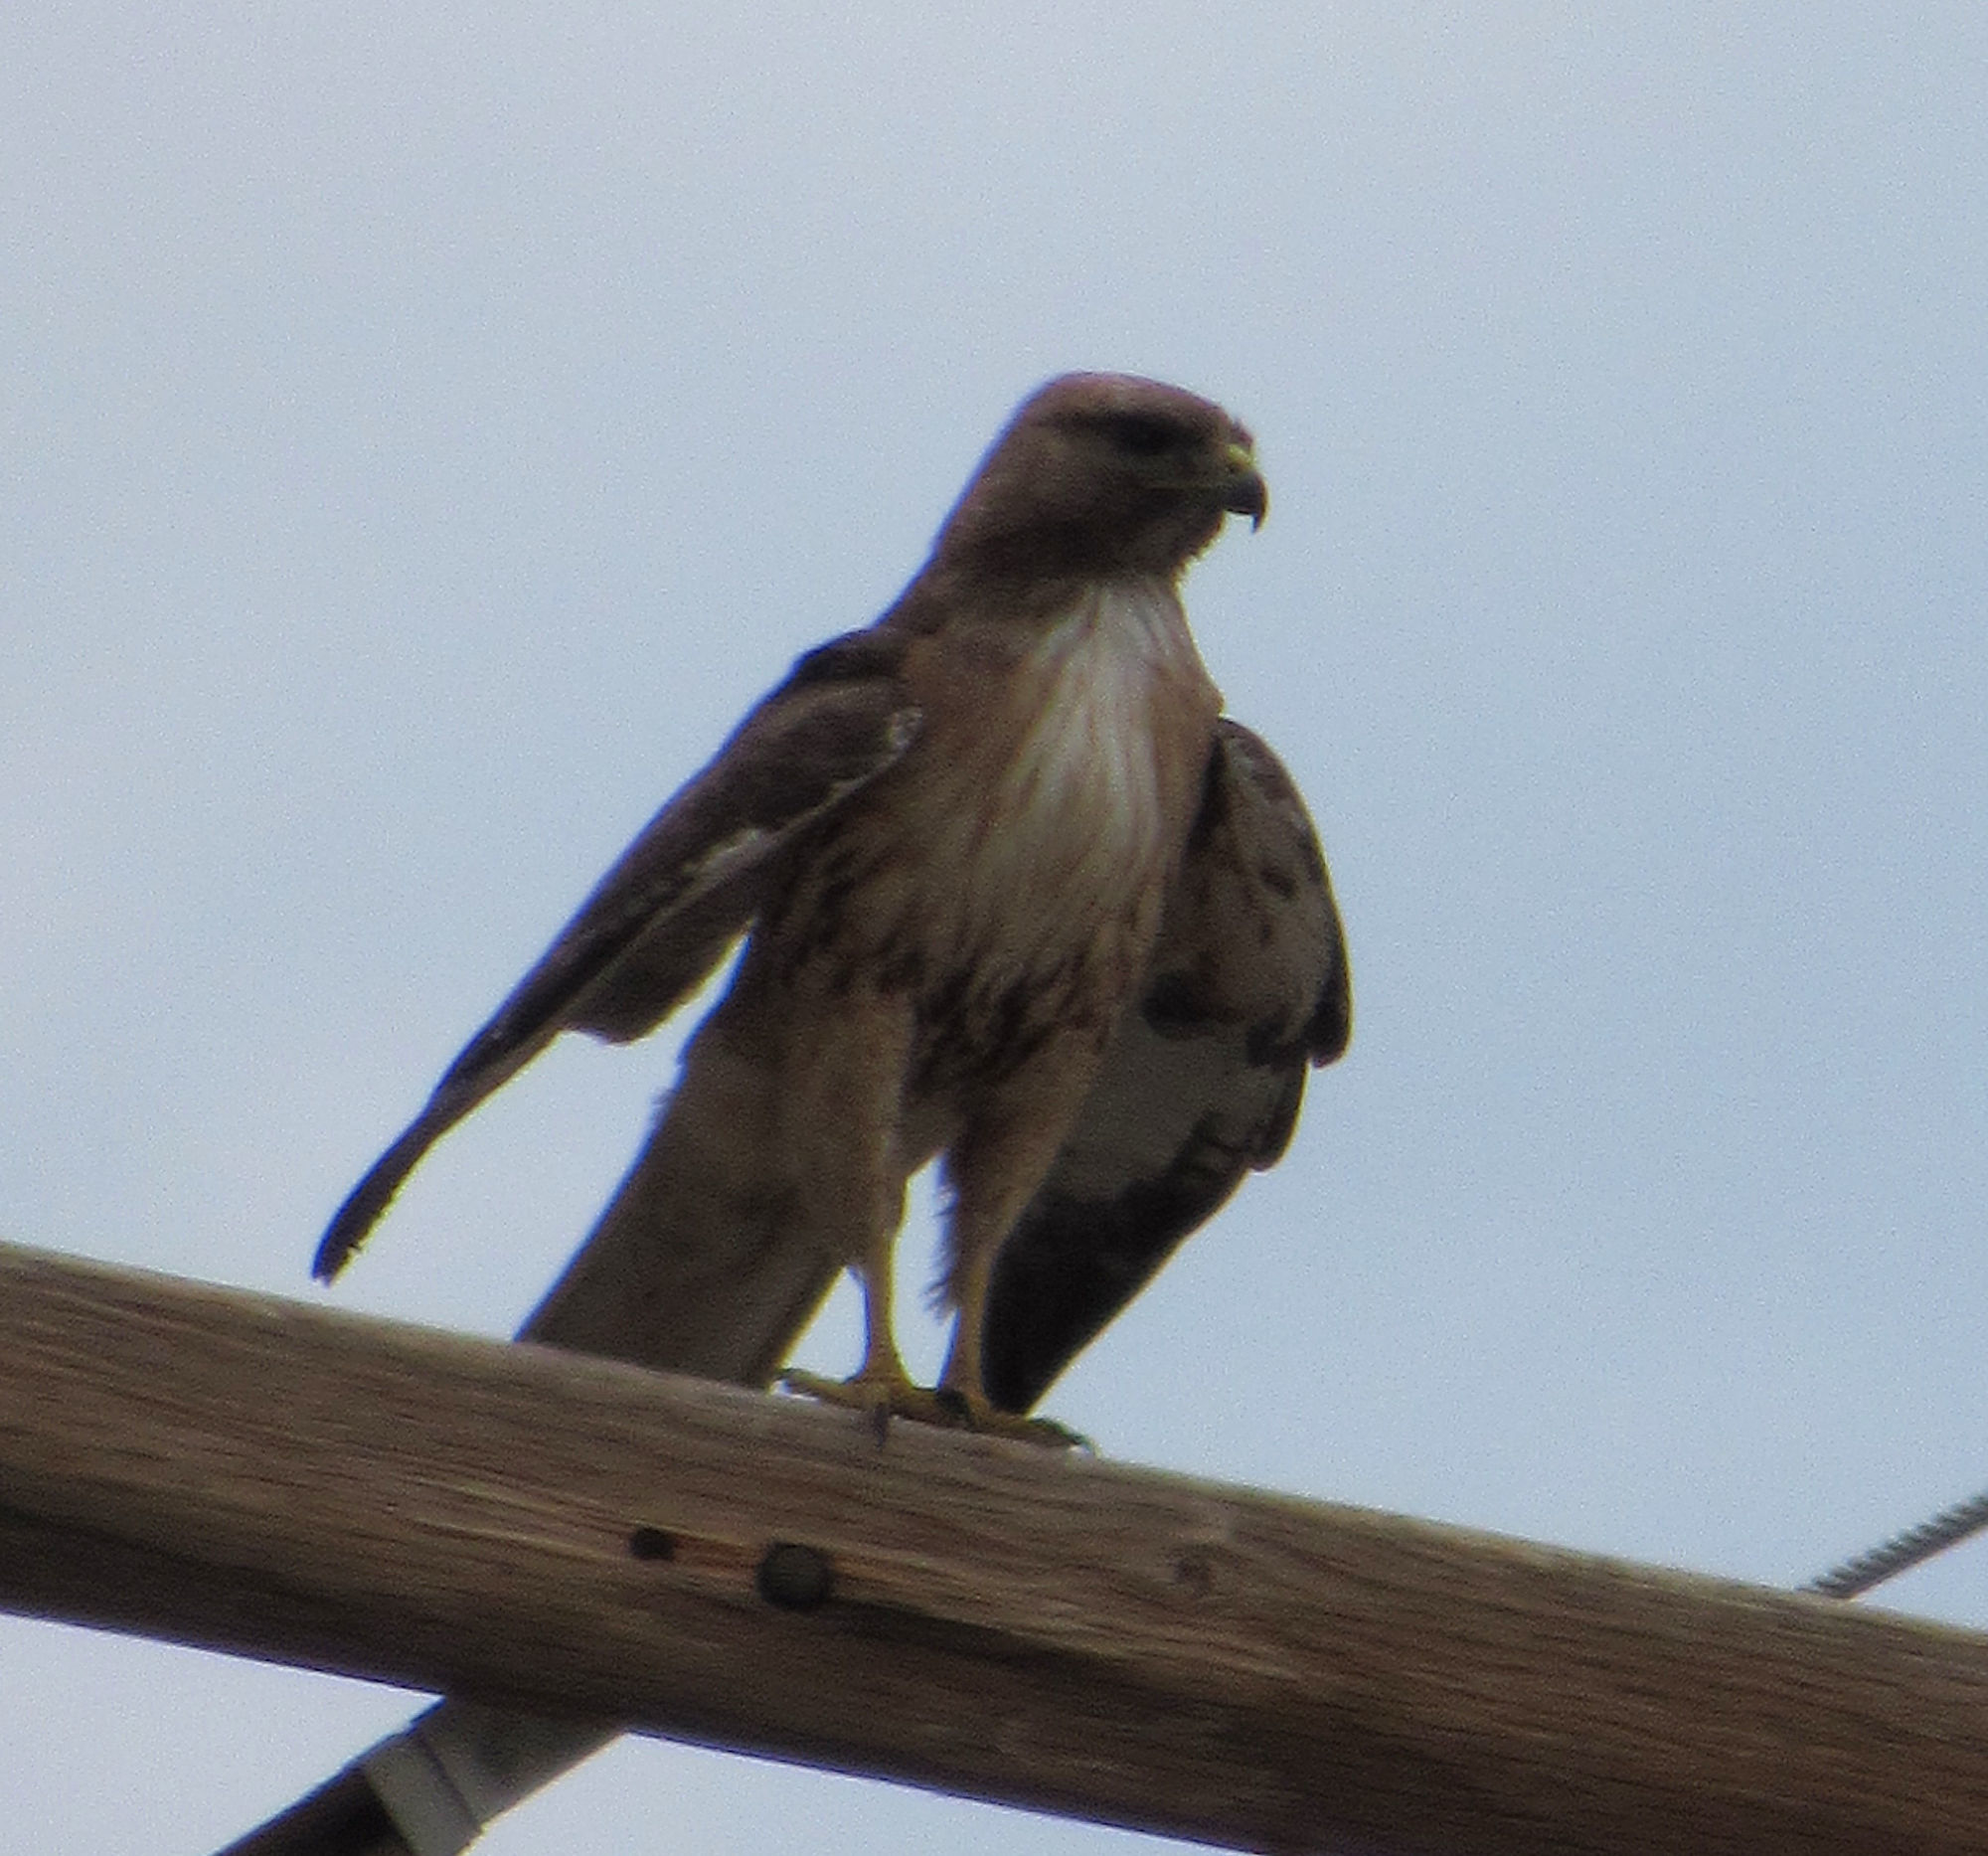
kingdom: Animalia
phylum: Chordata
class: Aves
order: Accipitriformes
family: Accipitridae
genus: Buteo
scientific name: Buteo jamaicensis
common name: Red-tailed hawk
